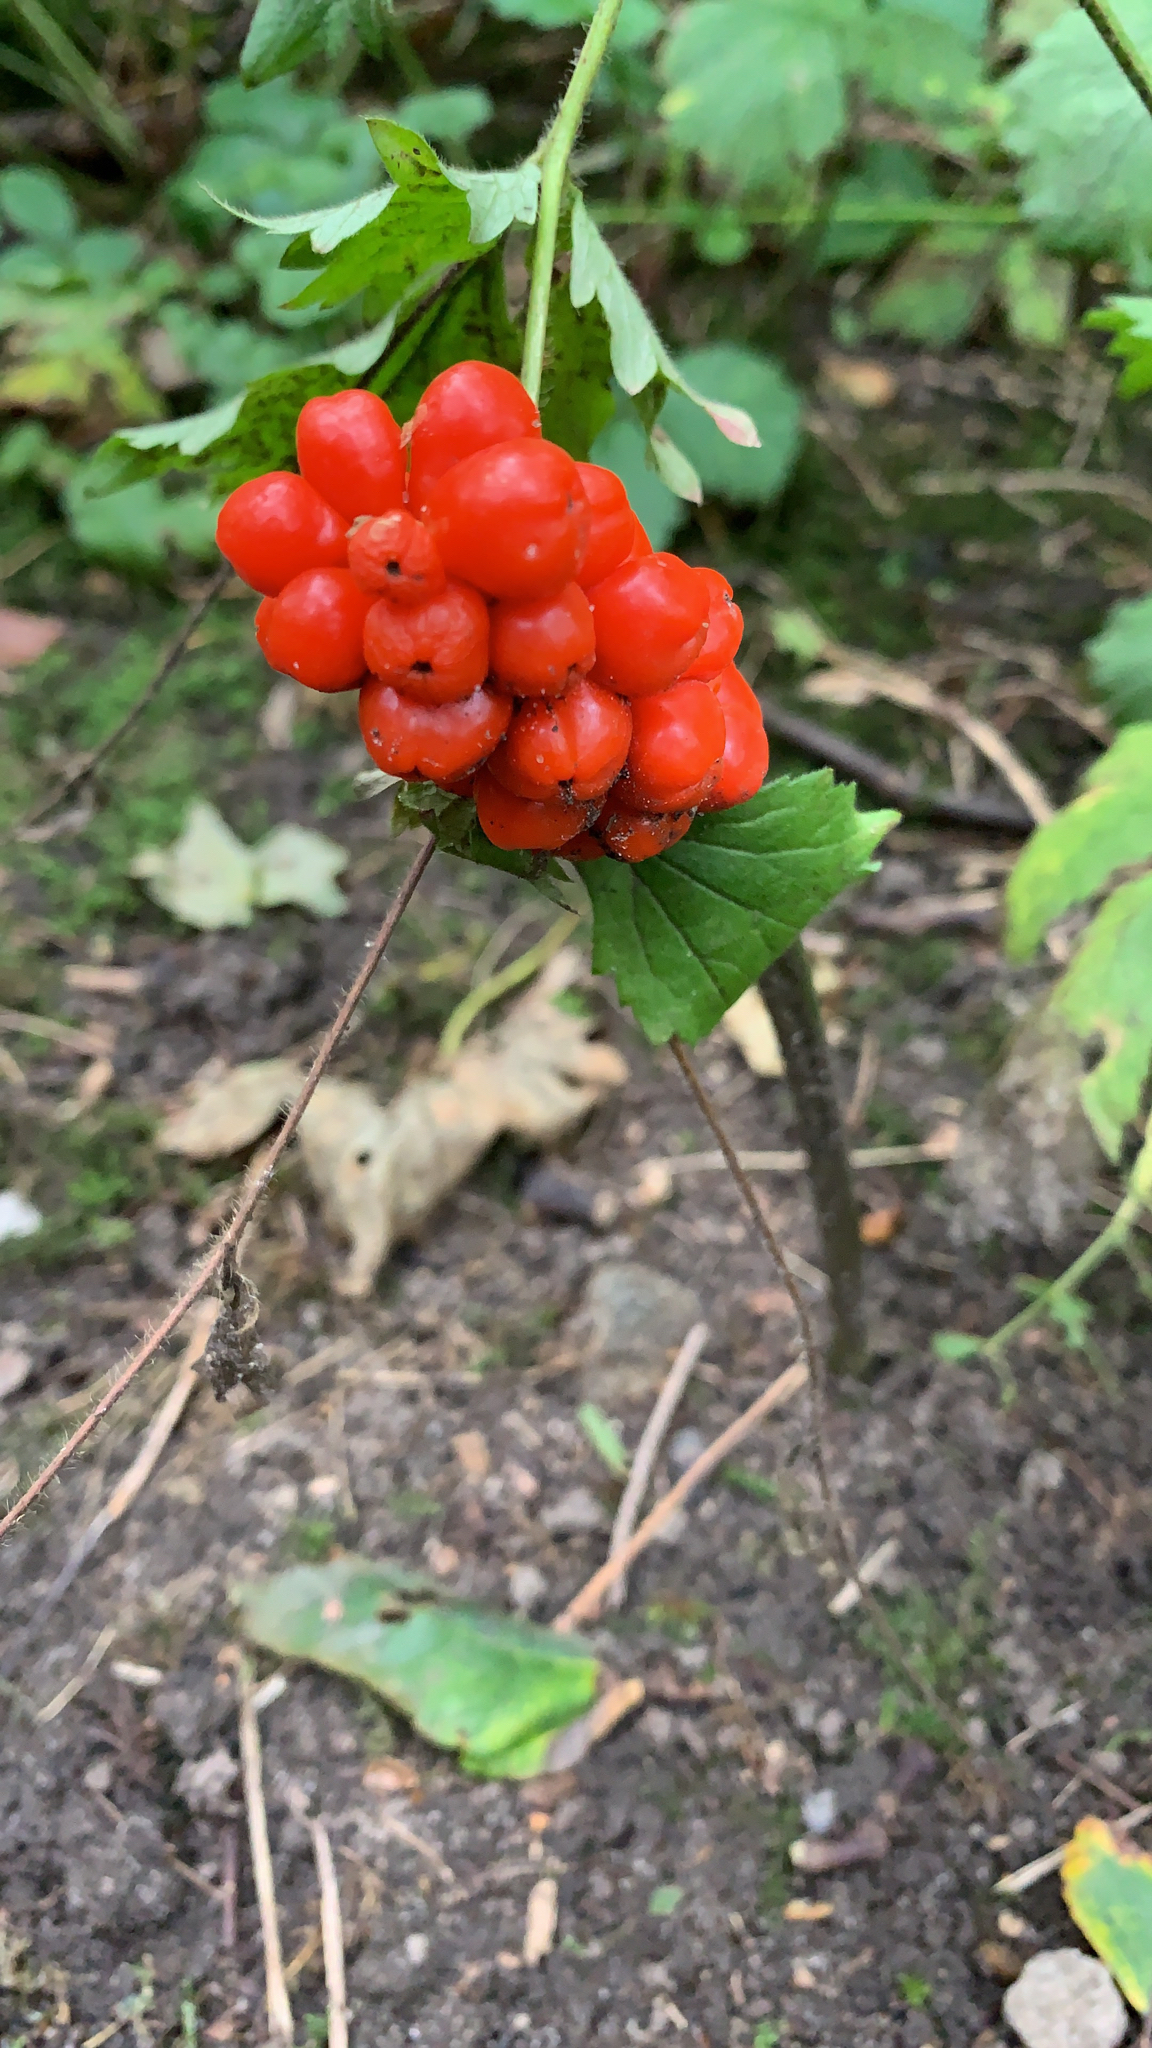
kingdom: Plantae
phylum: Tracheophyta
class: Liliopsida
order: Alismatales
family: Araceae
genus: Arum
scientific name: Arum maculatum
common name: Lords-and-ladies
